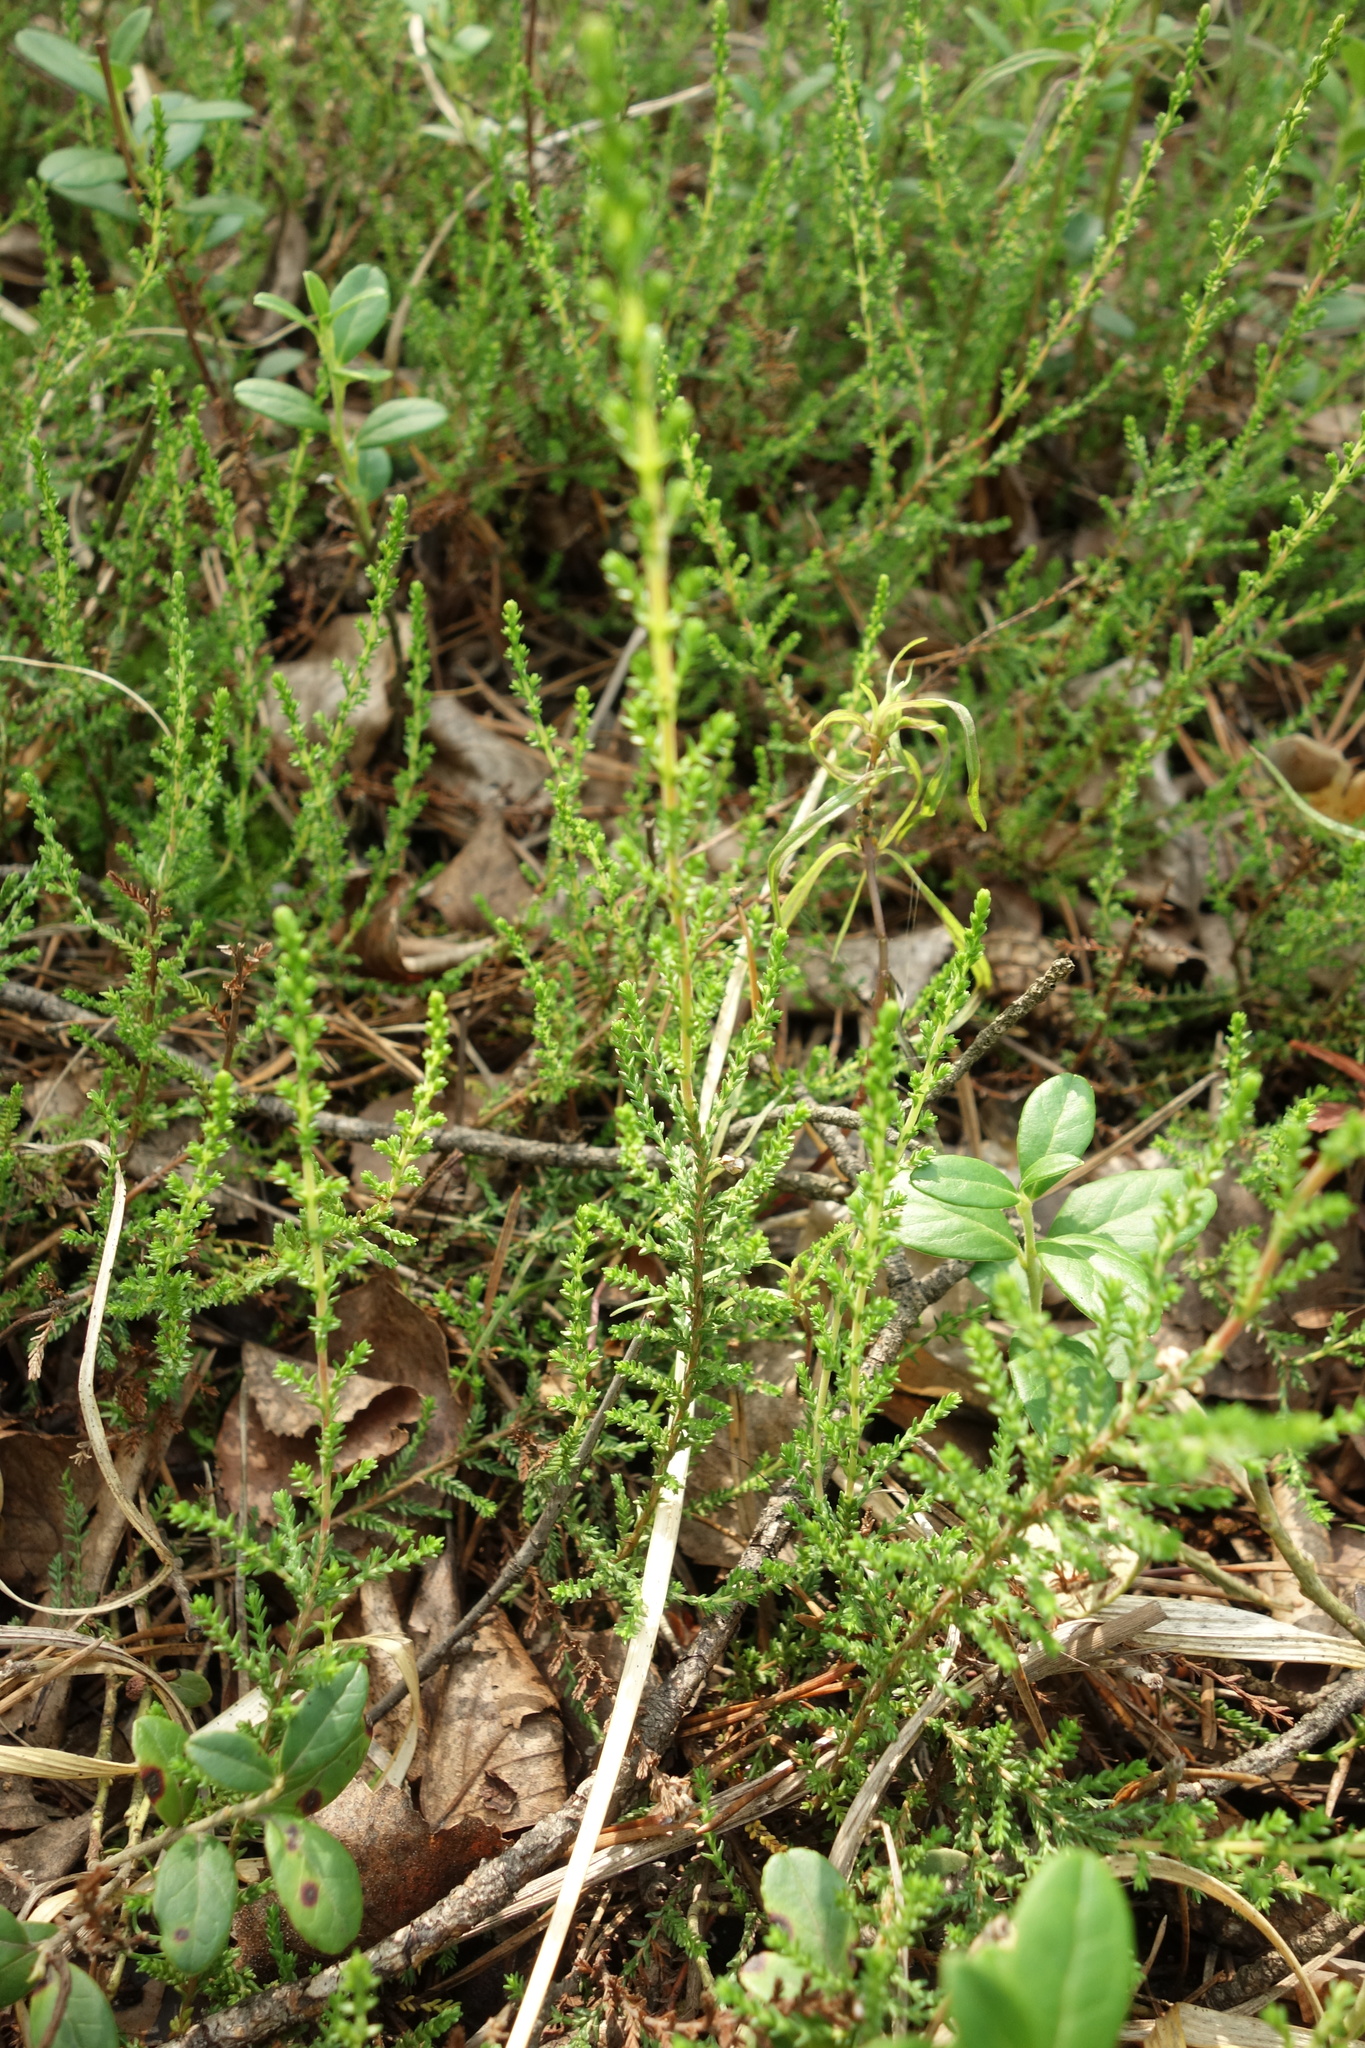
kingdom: Plantae
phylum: Tracheophyta
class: Magnoliopsida
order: Ericales
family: Ericaceae
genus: Calluna
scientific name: Calluna vulgaris
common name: Heather
